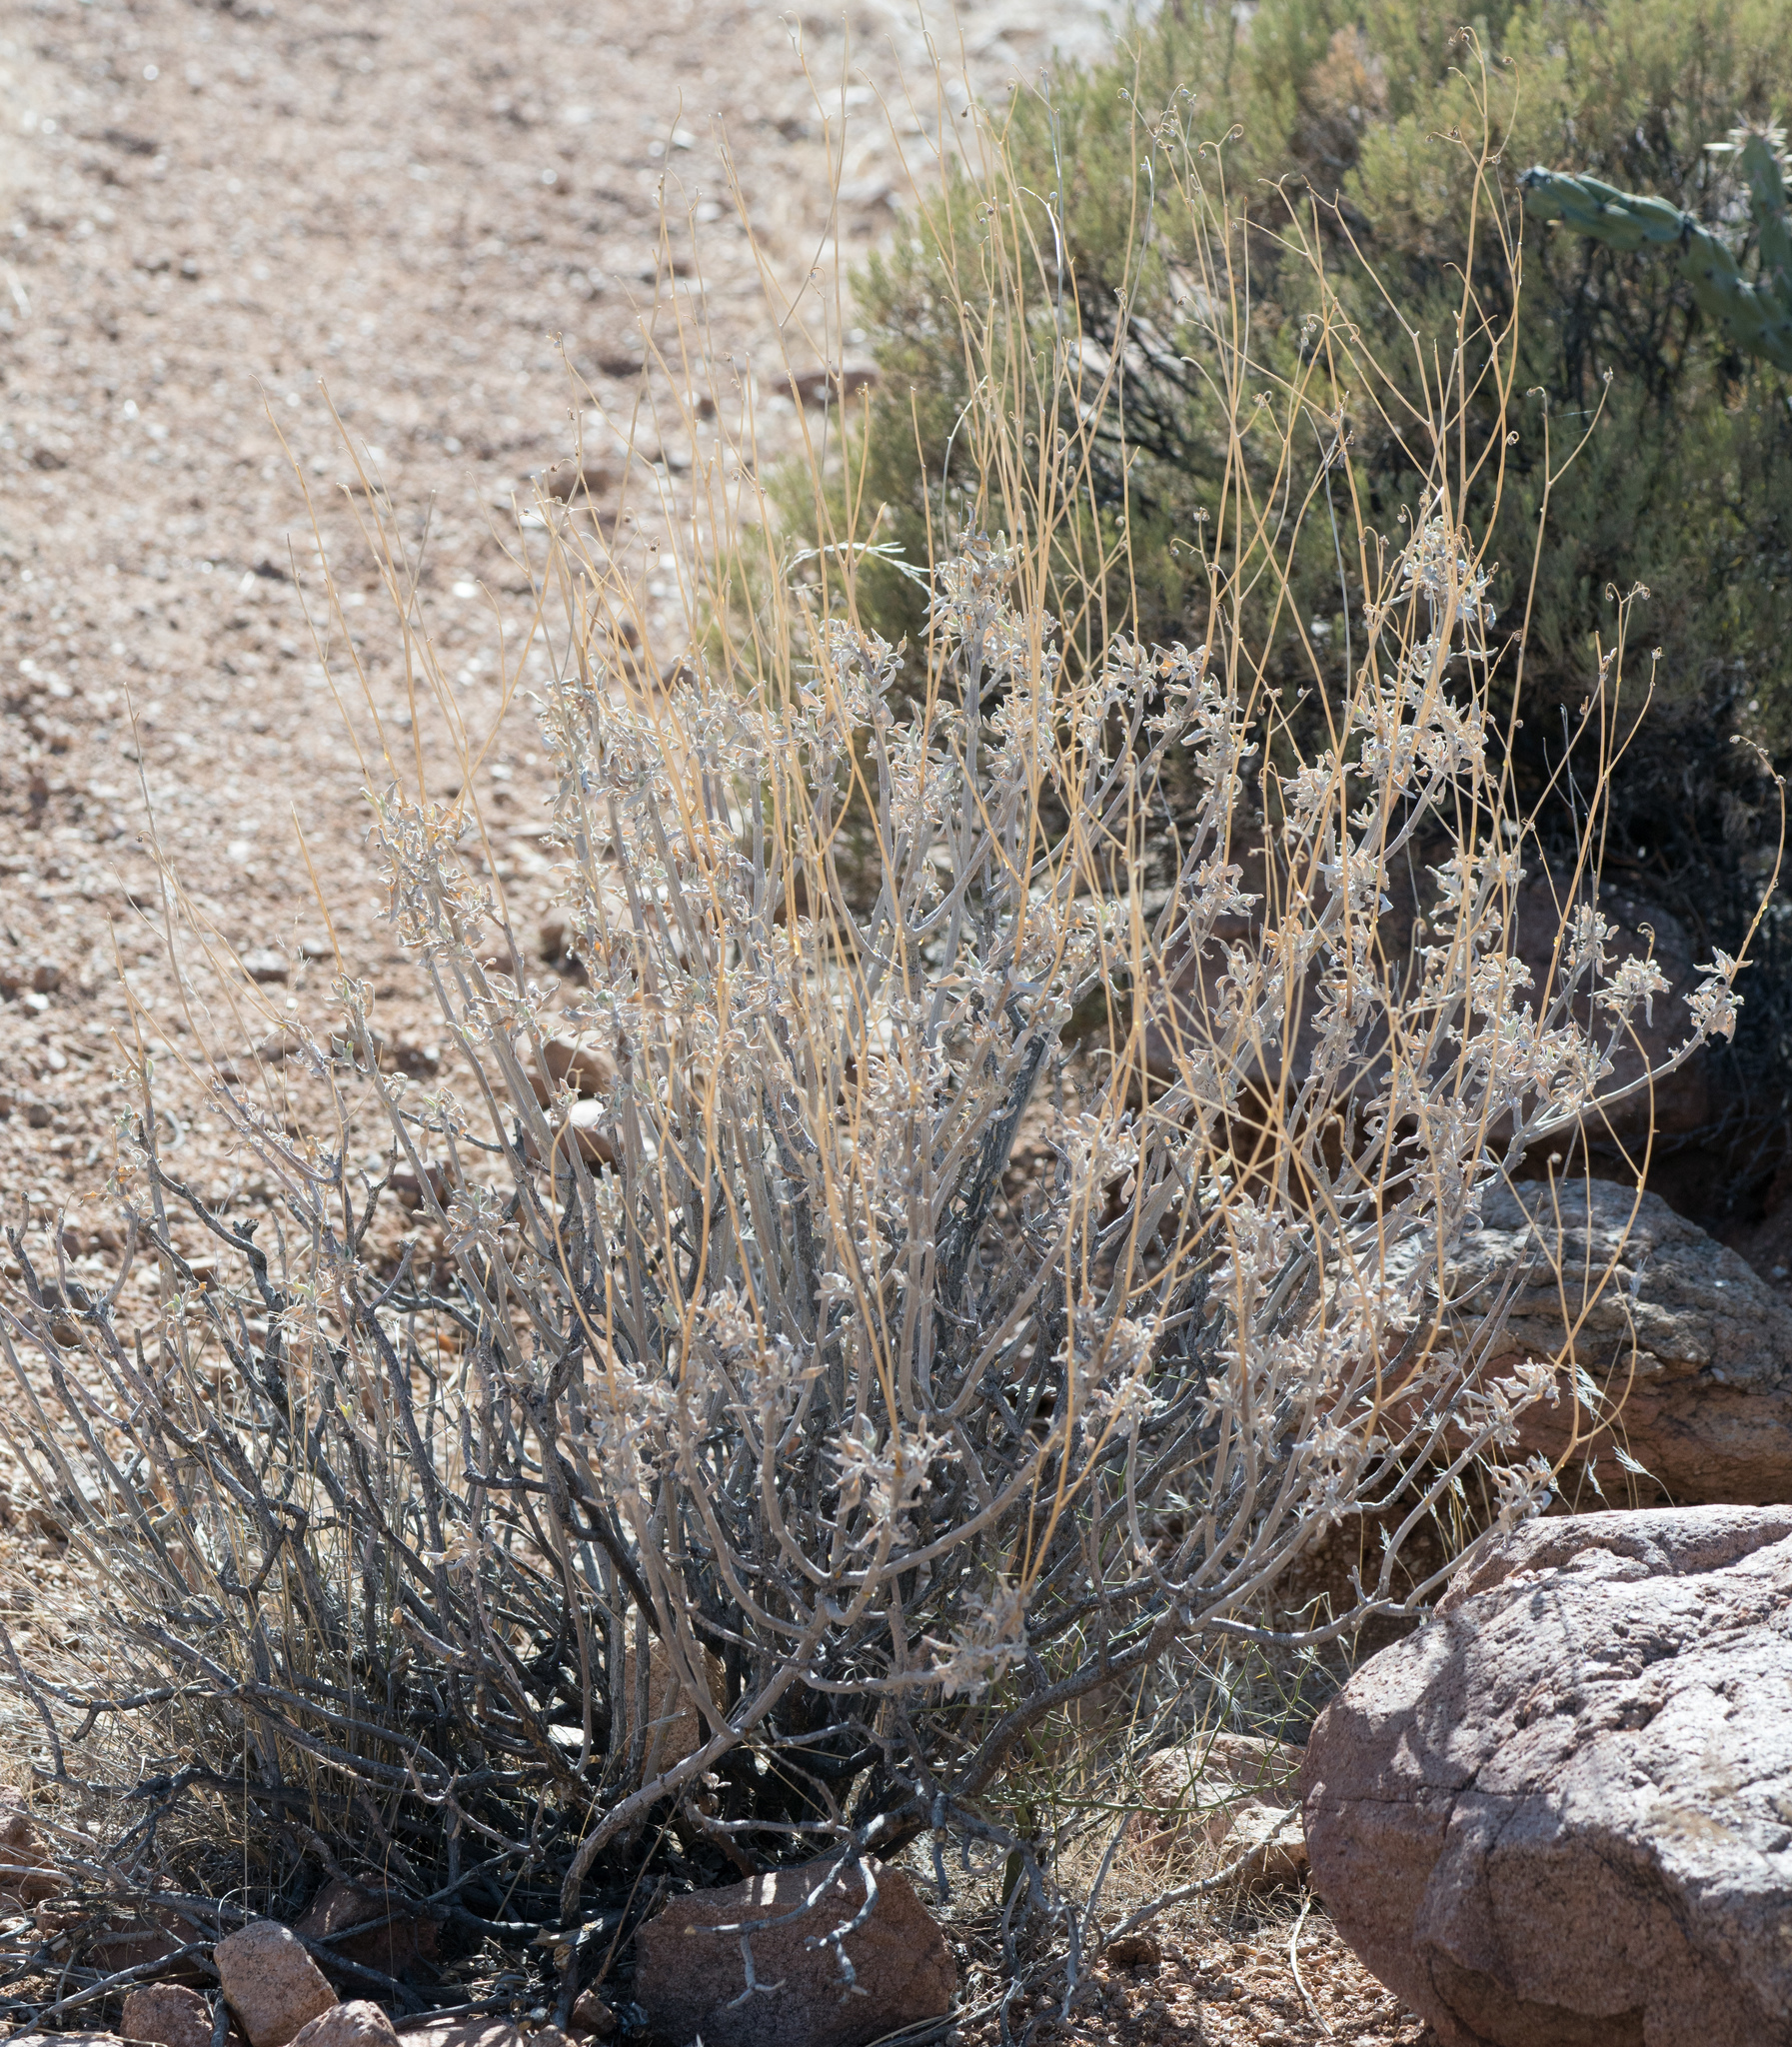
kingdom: Plantae
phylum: Tracheophyta
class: Magnoliopsida
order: Asterales
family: Asteraceae
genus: Encelia
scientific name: Encelia farinosa
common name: Brittlebush
